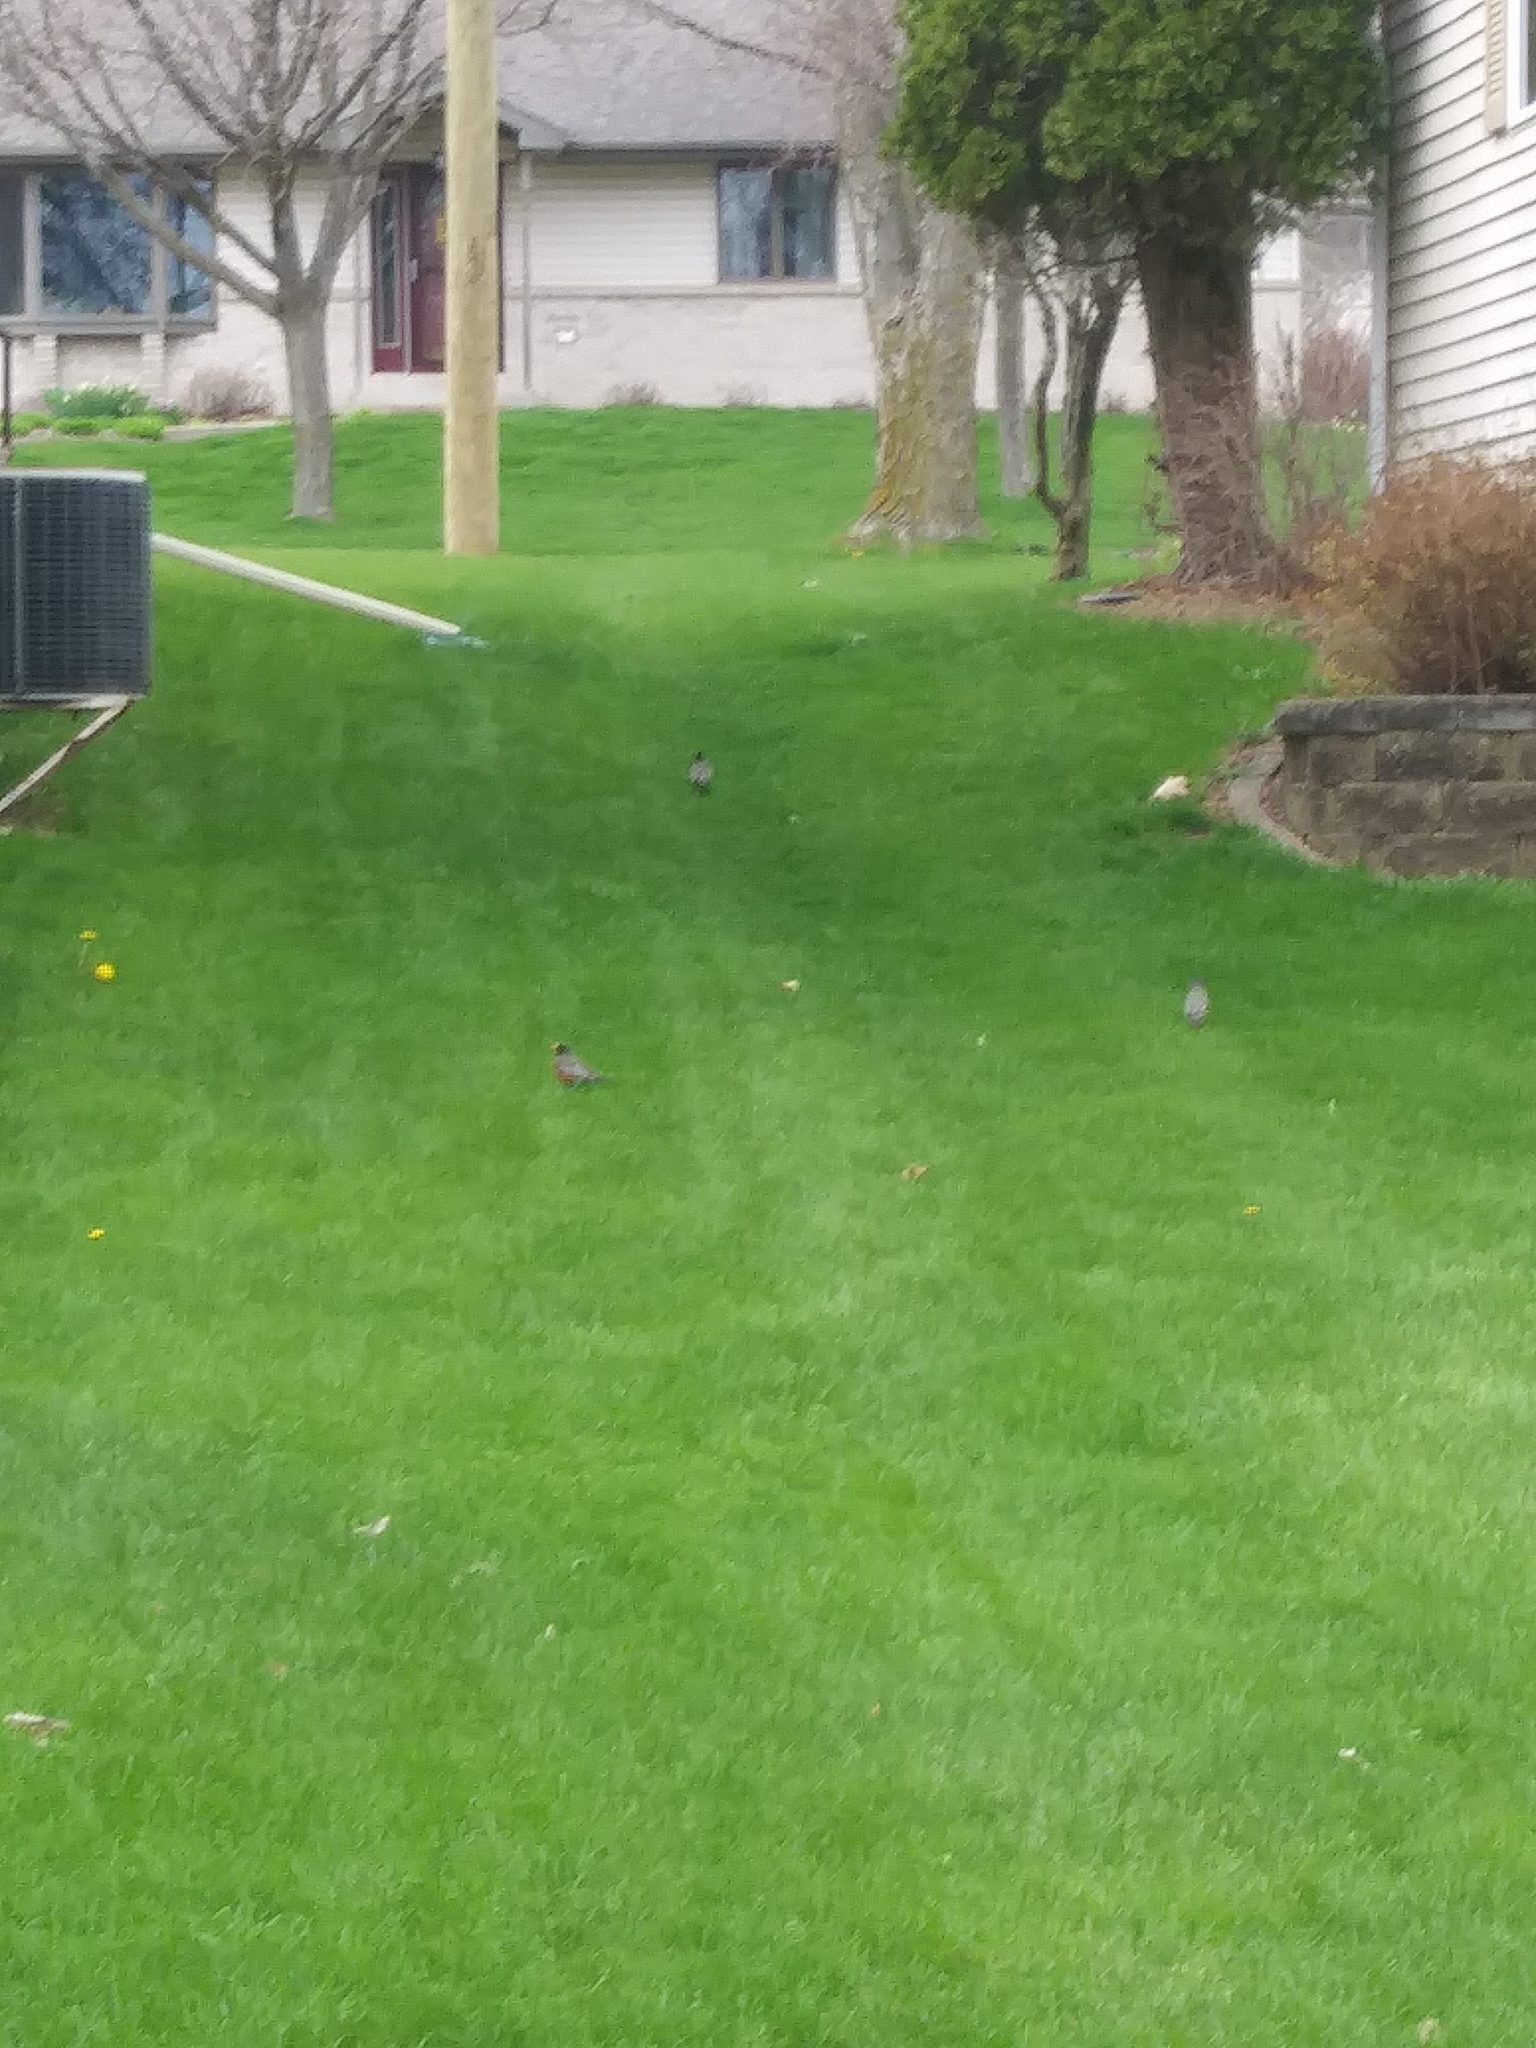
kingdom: Animalia
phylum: Chordata
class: Aves
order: Passeriformes
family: Turdidae
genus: Turdus
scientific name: Turdus migratorius
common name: American robin
